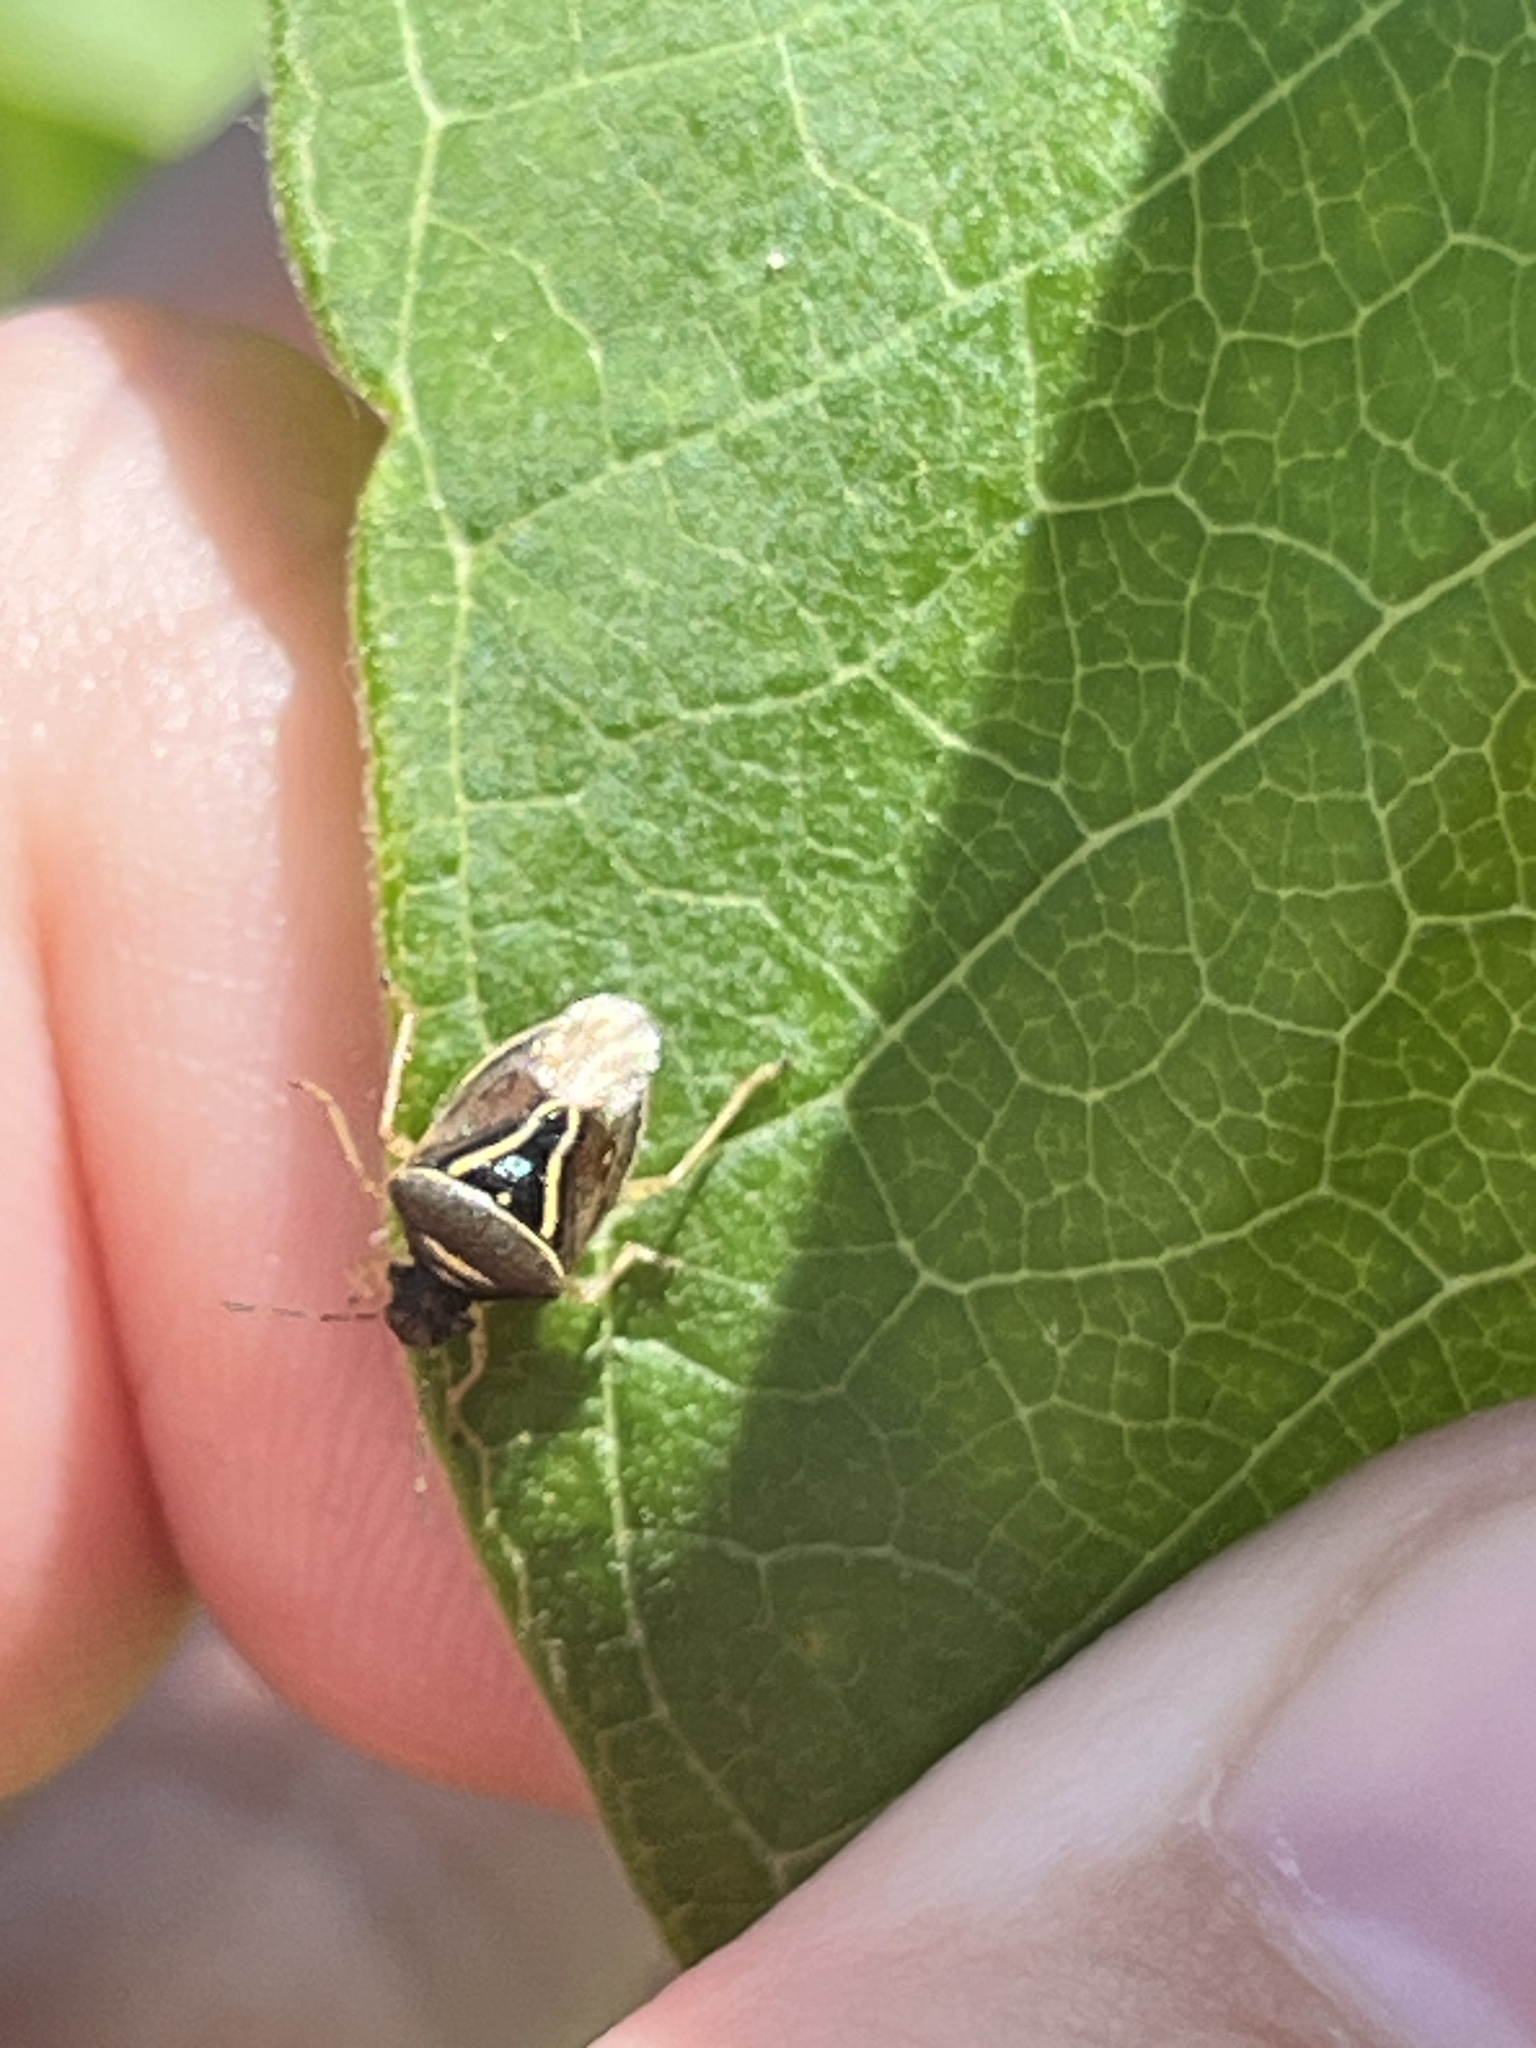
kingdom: Animalia
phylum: Arthropoda
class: Insecta
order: Hemiptera
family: Pentatomidae
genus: Mormidea
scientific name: Mormidea lugens
